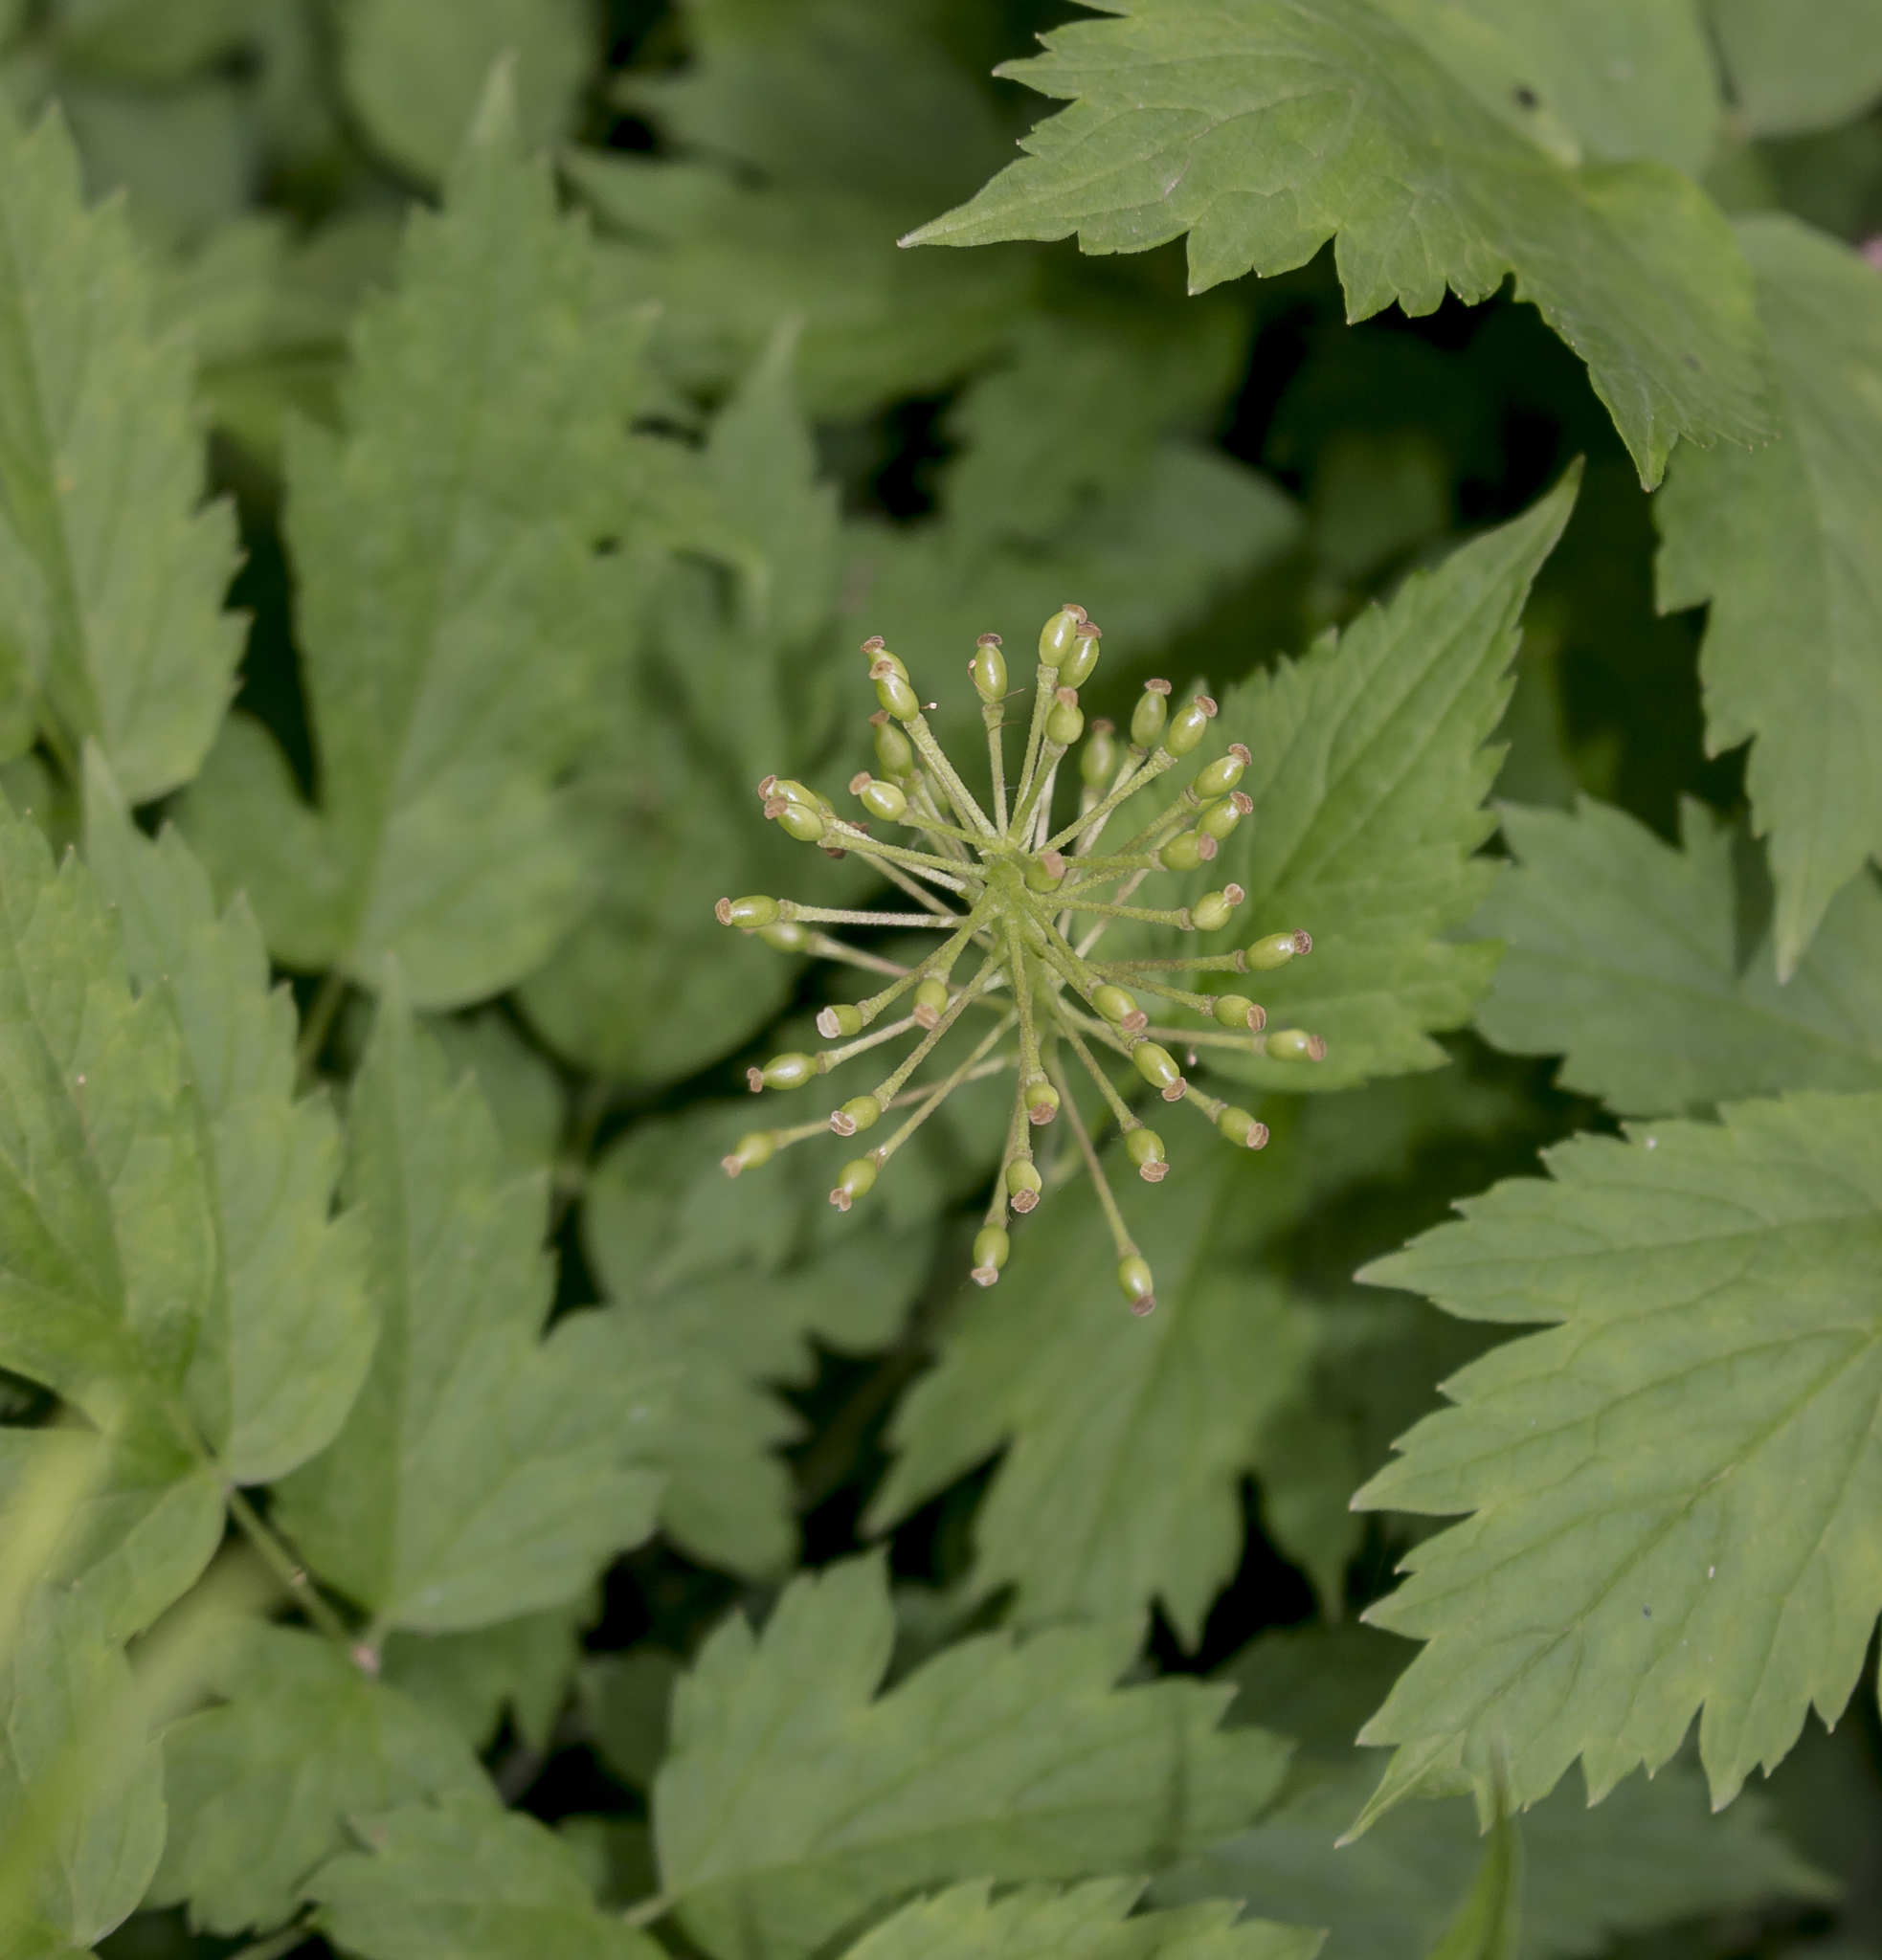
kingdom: Plantae
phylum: Tracheophyta
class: Magnoliopsida
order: Ranunculales
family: Ranunculaceae
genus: Actaea
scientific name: Actaea rubra
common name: Red baneberry
